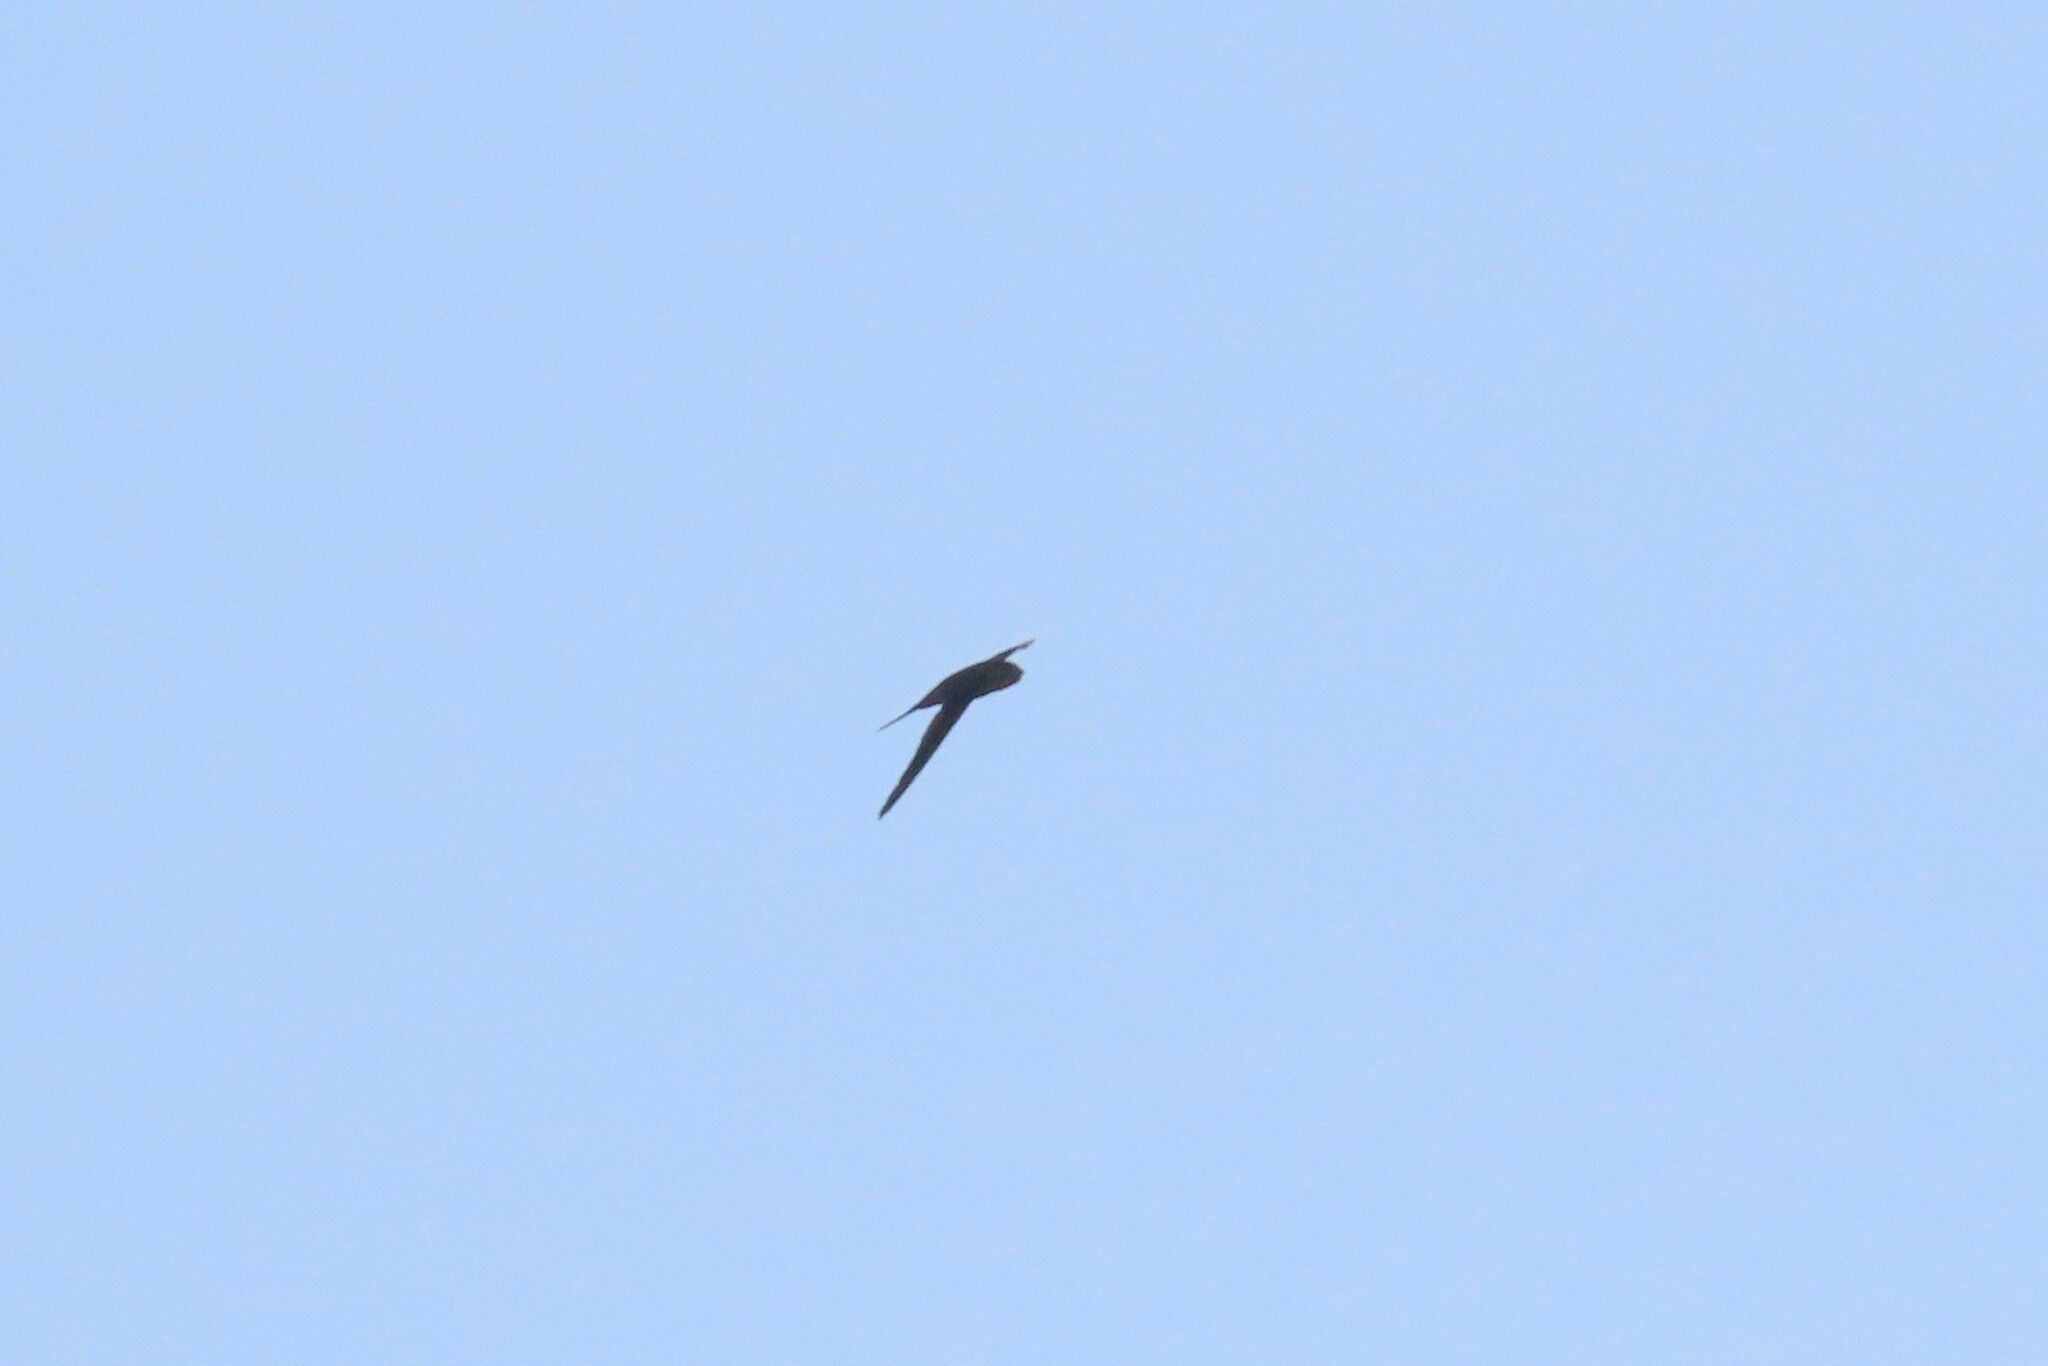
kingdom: Animalia
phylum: Chordata
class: Aves
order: Apodiformes
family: Apodidae
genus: Cypsiurus
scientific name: Cypsiurus balasiensis
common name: Asian palm swift
